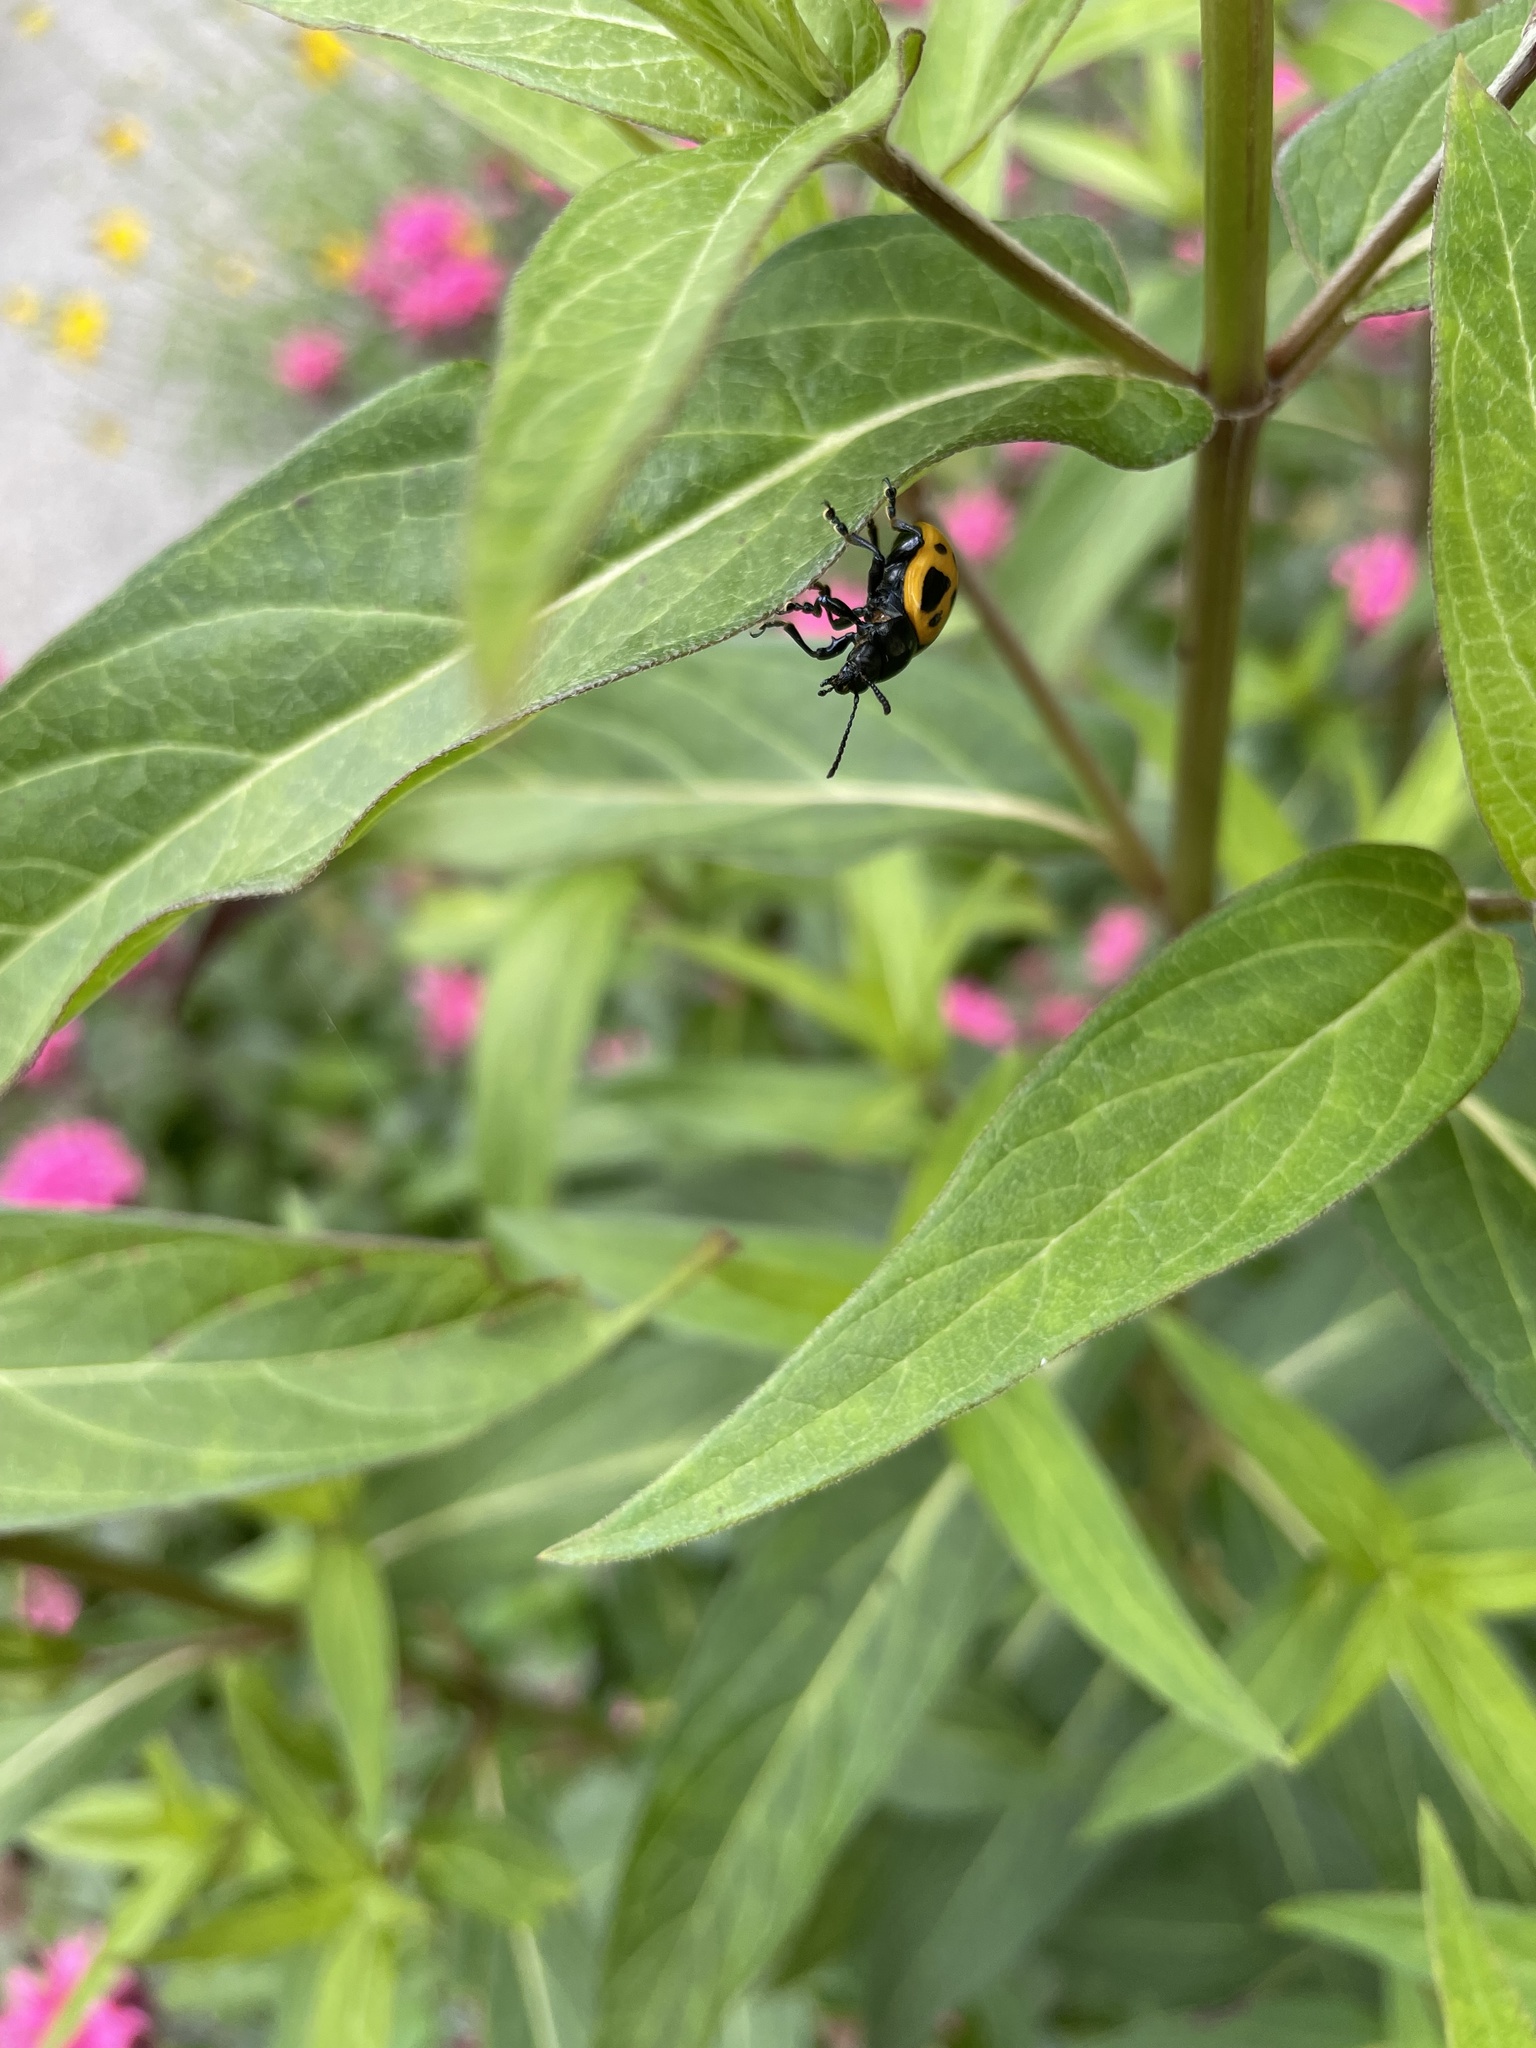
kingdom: Animalia
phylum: Arthropoda
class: Insecta
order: Coleoptera
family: Chrysomelidae
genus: Labidomera
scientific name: Labidomera clivicollis
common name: Swamp milkweed leaf beetle
